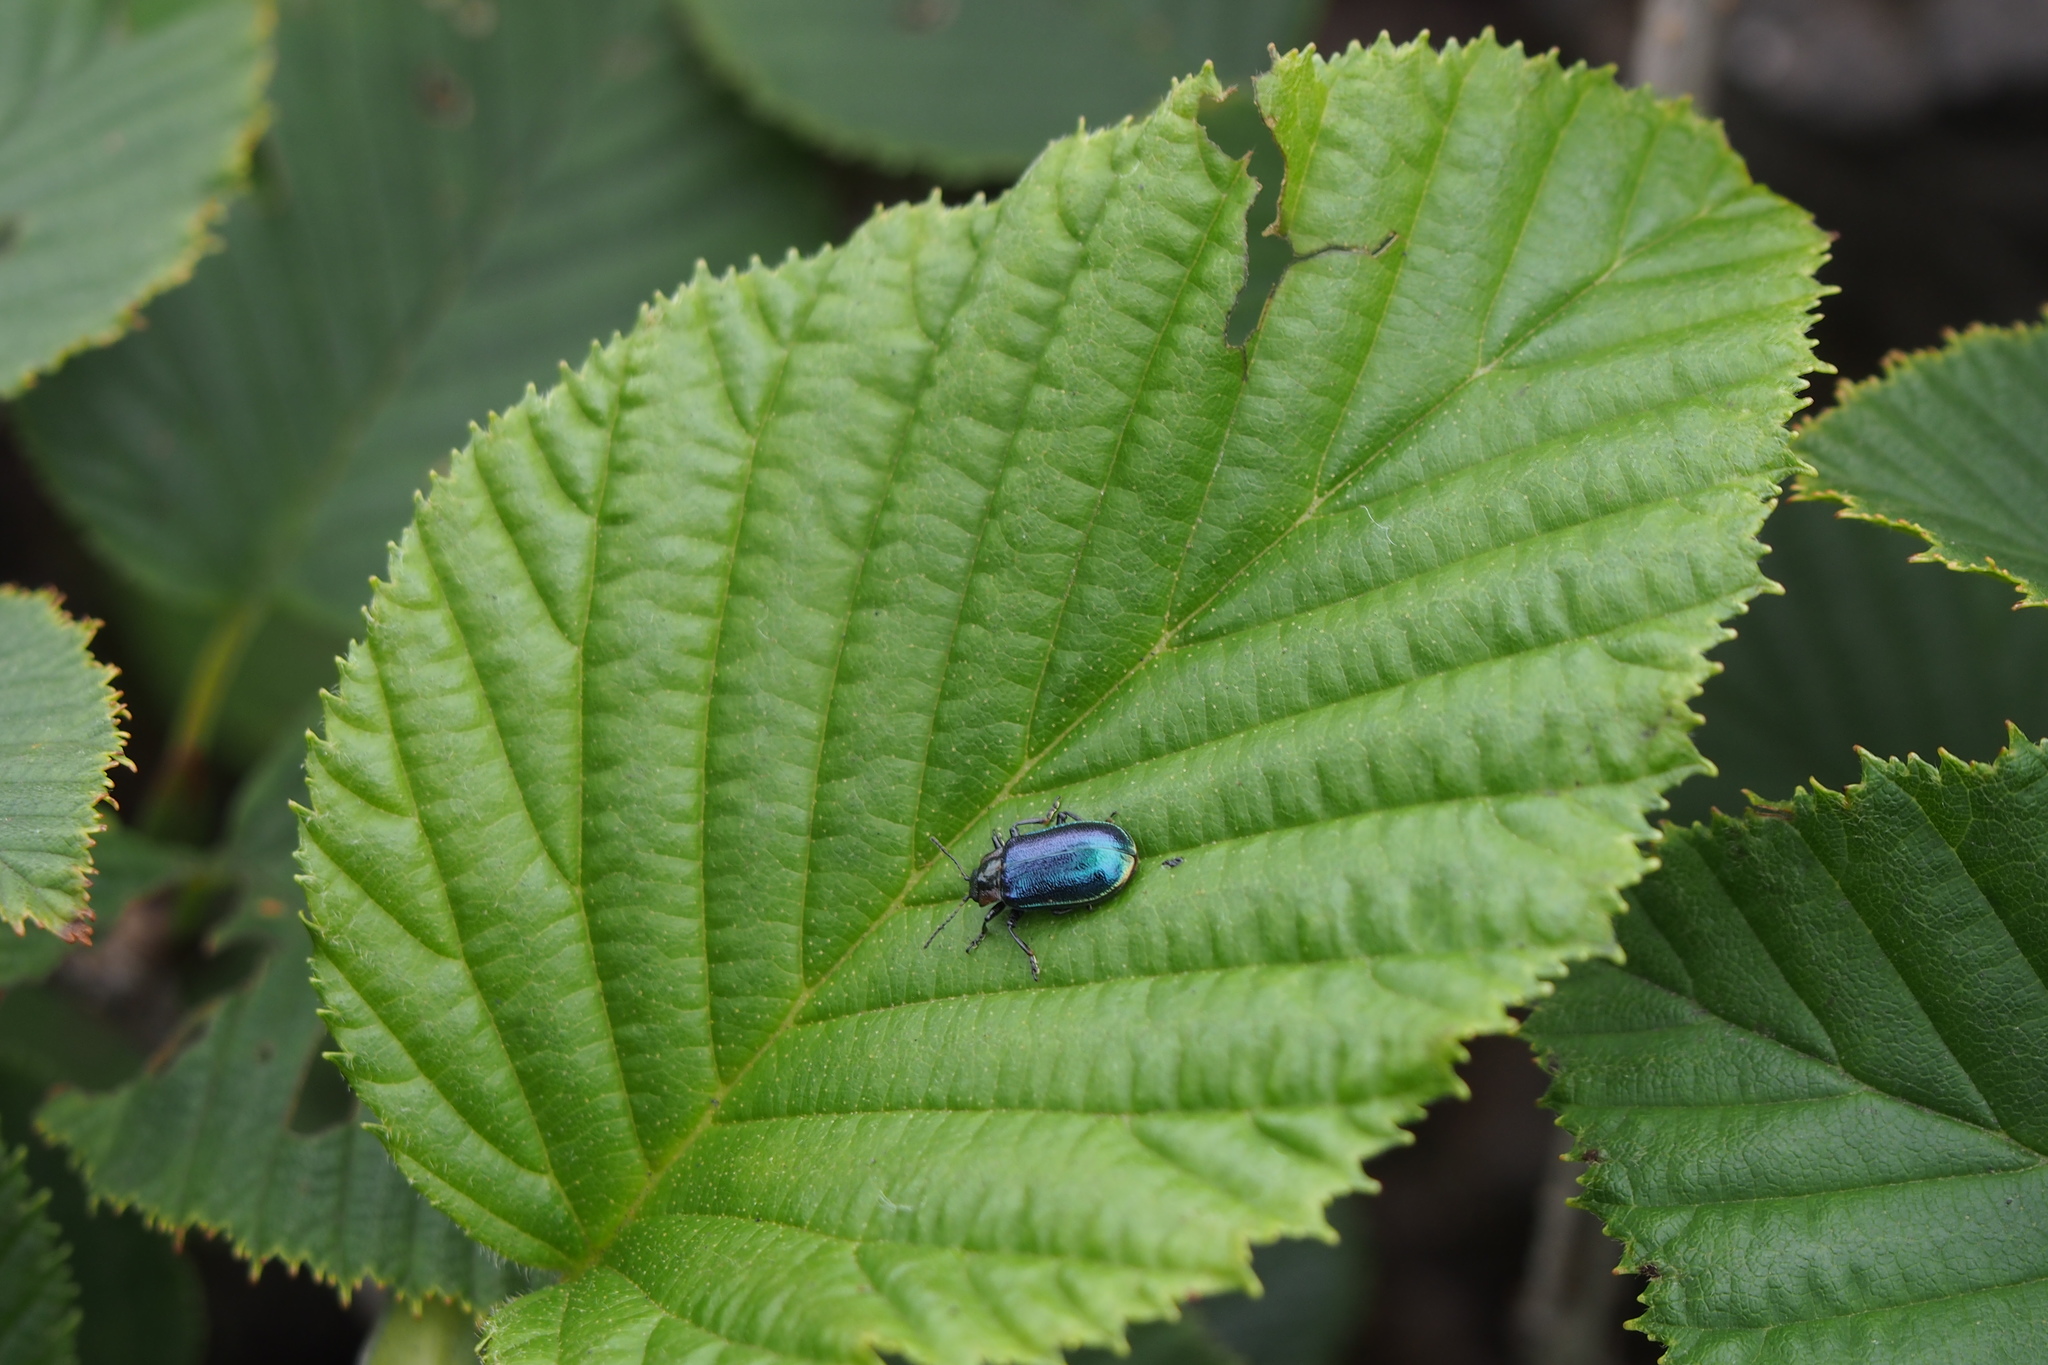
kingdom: Animalia
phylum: Arthropoda
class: Insecta
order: Coleoptera
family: Chrysomelidae
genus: Gastrolina
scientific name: Gastrolina Chrysomela peltoidea
